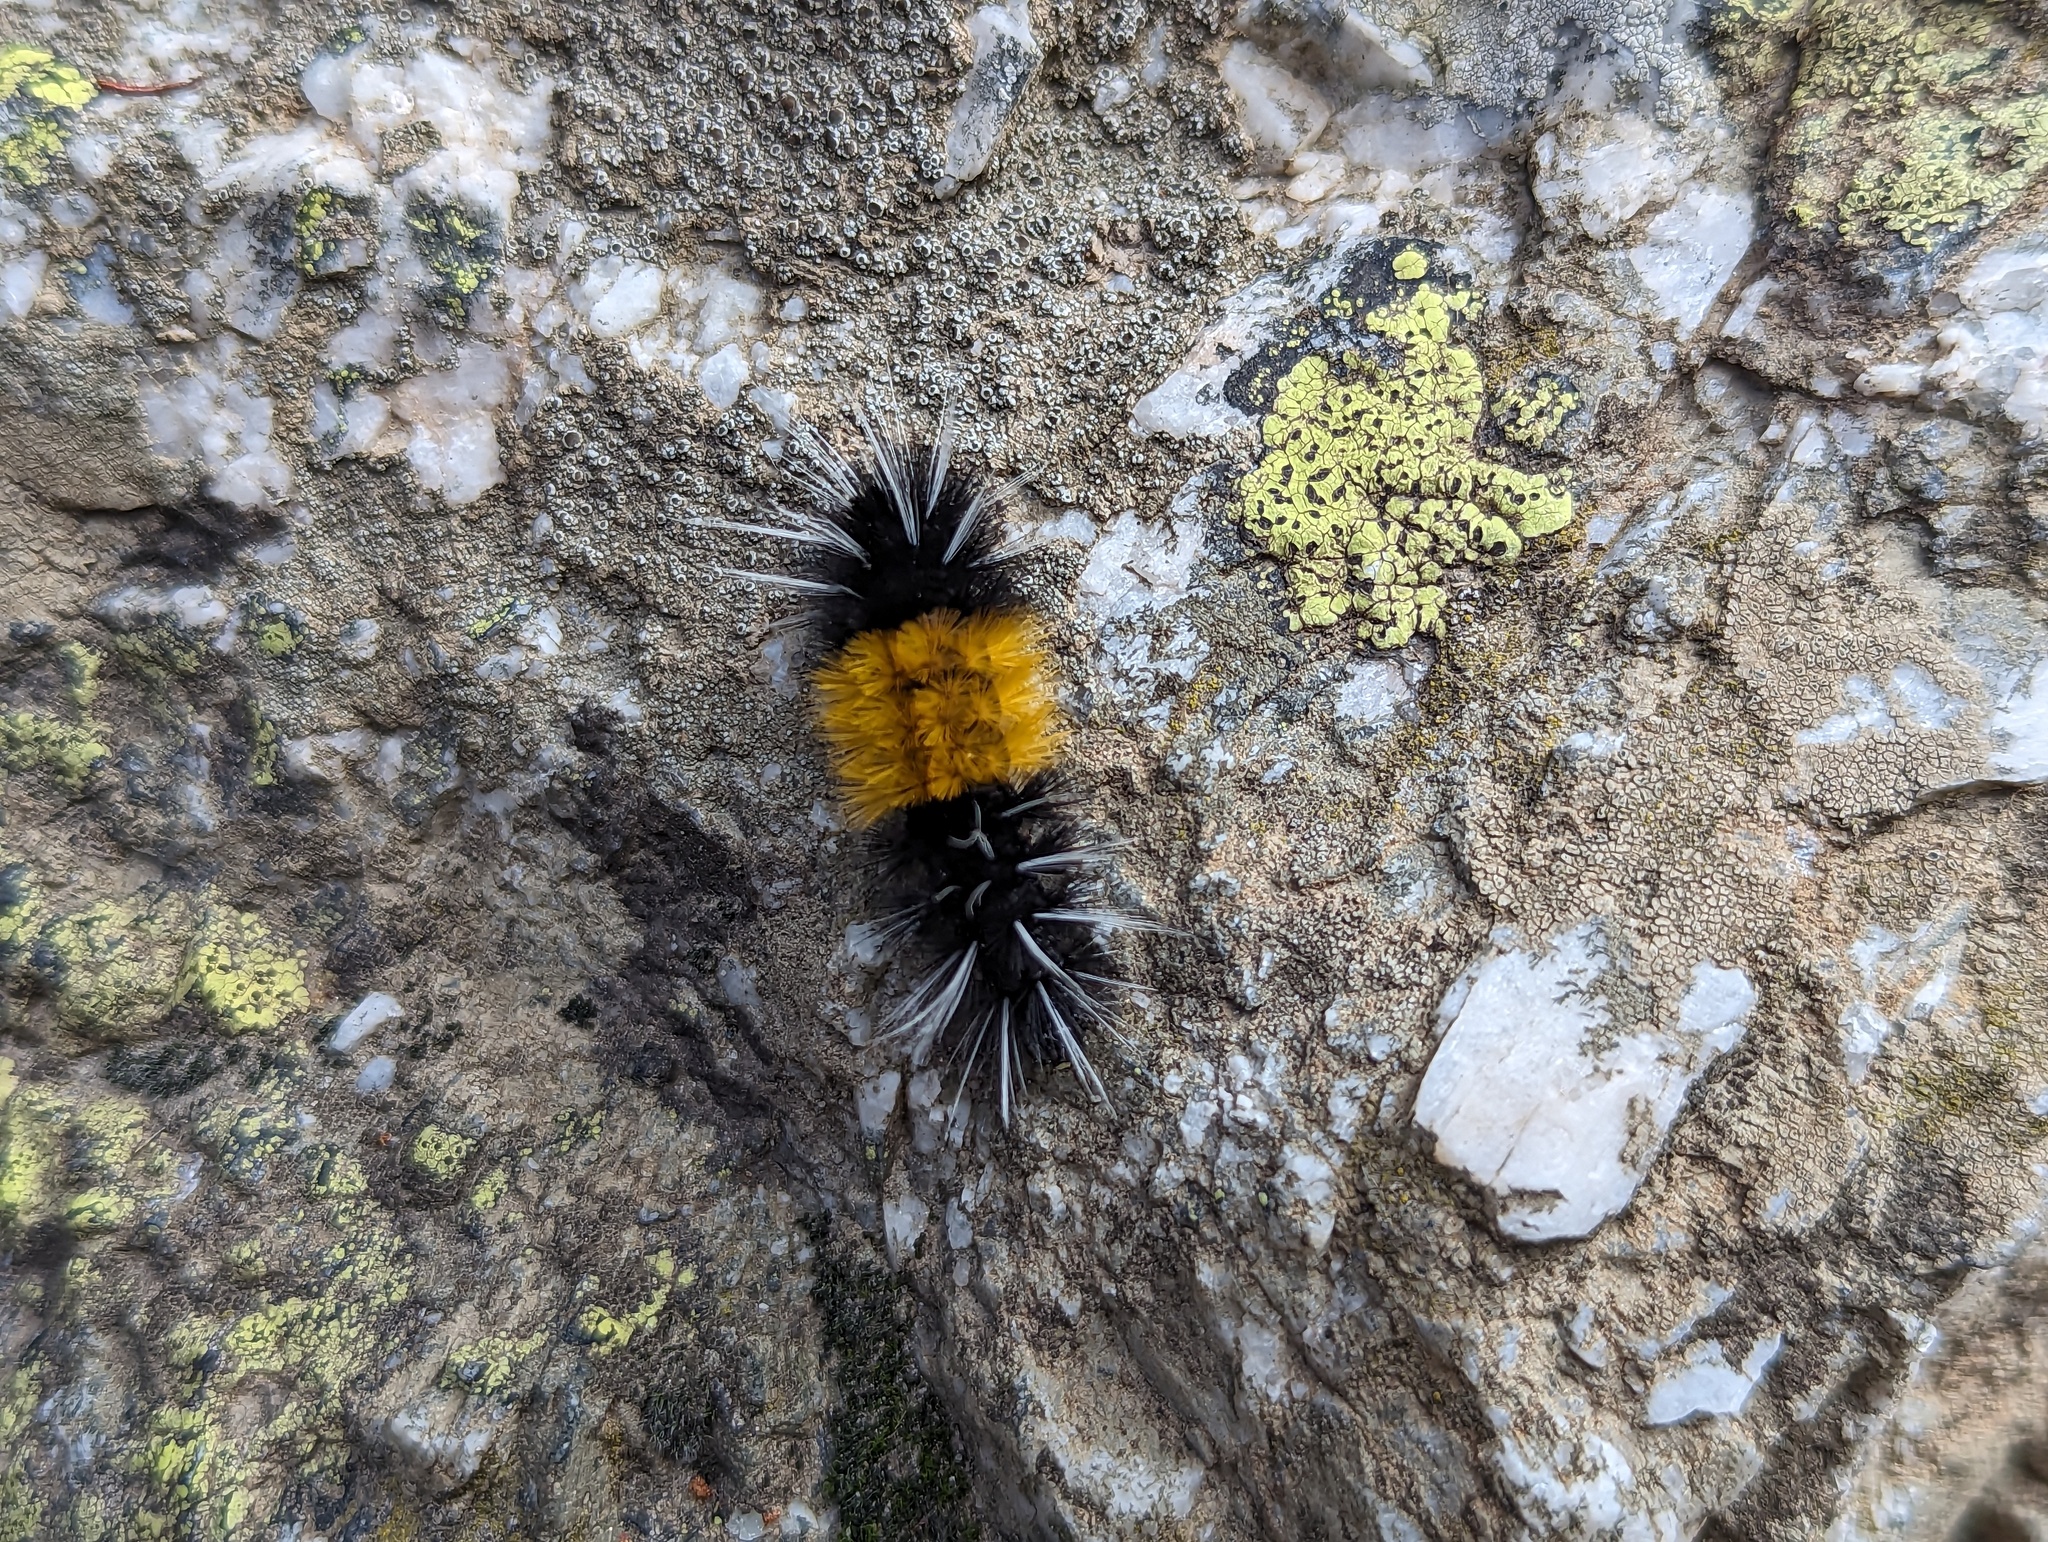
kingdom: Animalia
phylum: Arthropoda
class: Insecta
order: Lepidoptera
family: Erebidae
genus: Lophocampa
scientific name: Lophocampa maculata
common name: Spotted tussock moth
